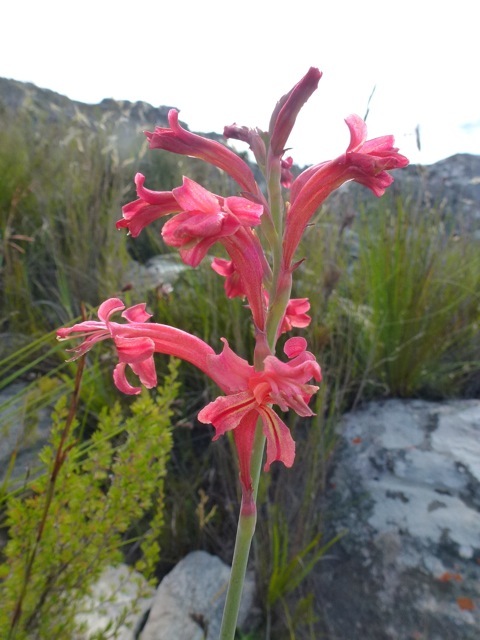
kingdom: Plantae
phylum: Tracheophyta
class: Liliopsida
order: Asparagales
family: Iridaceae
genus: Tritoniopsis
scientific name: Tritoniopsis antholyza
